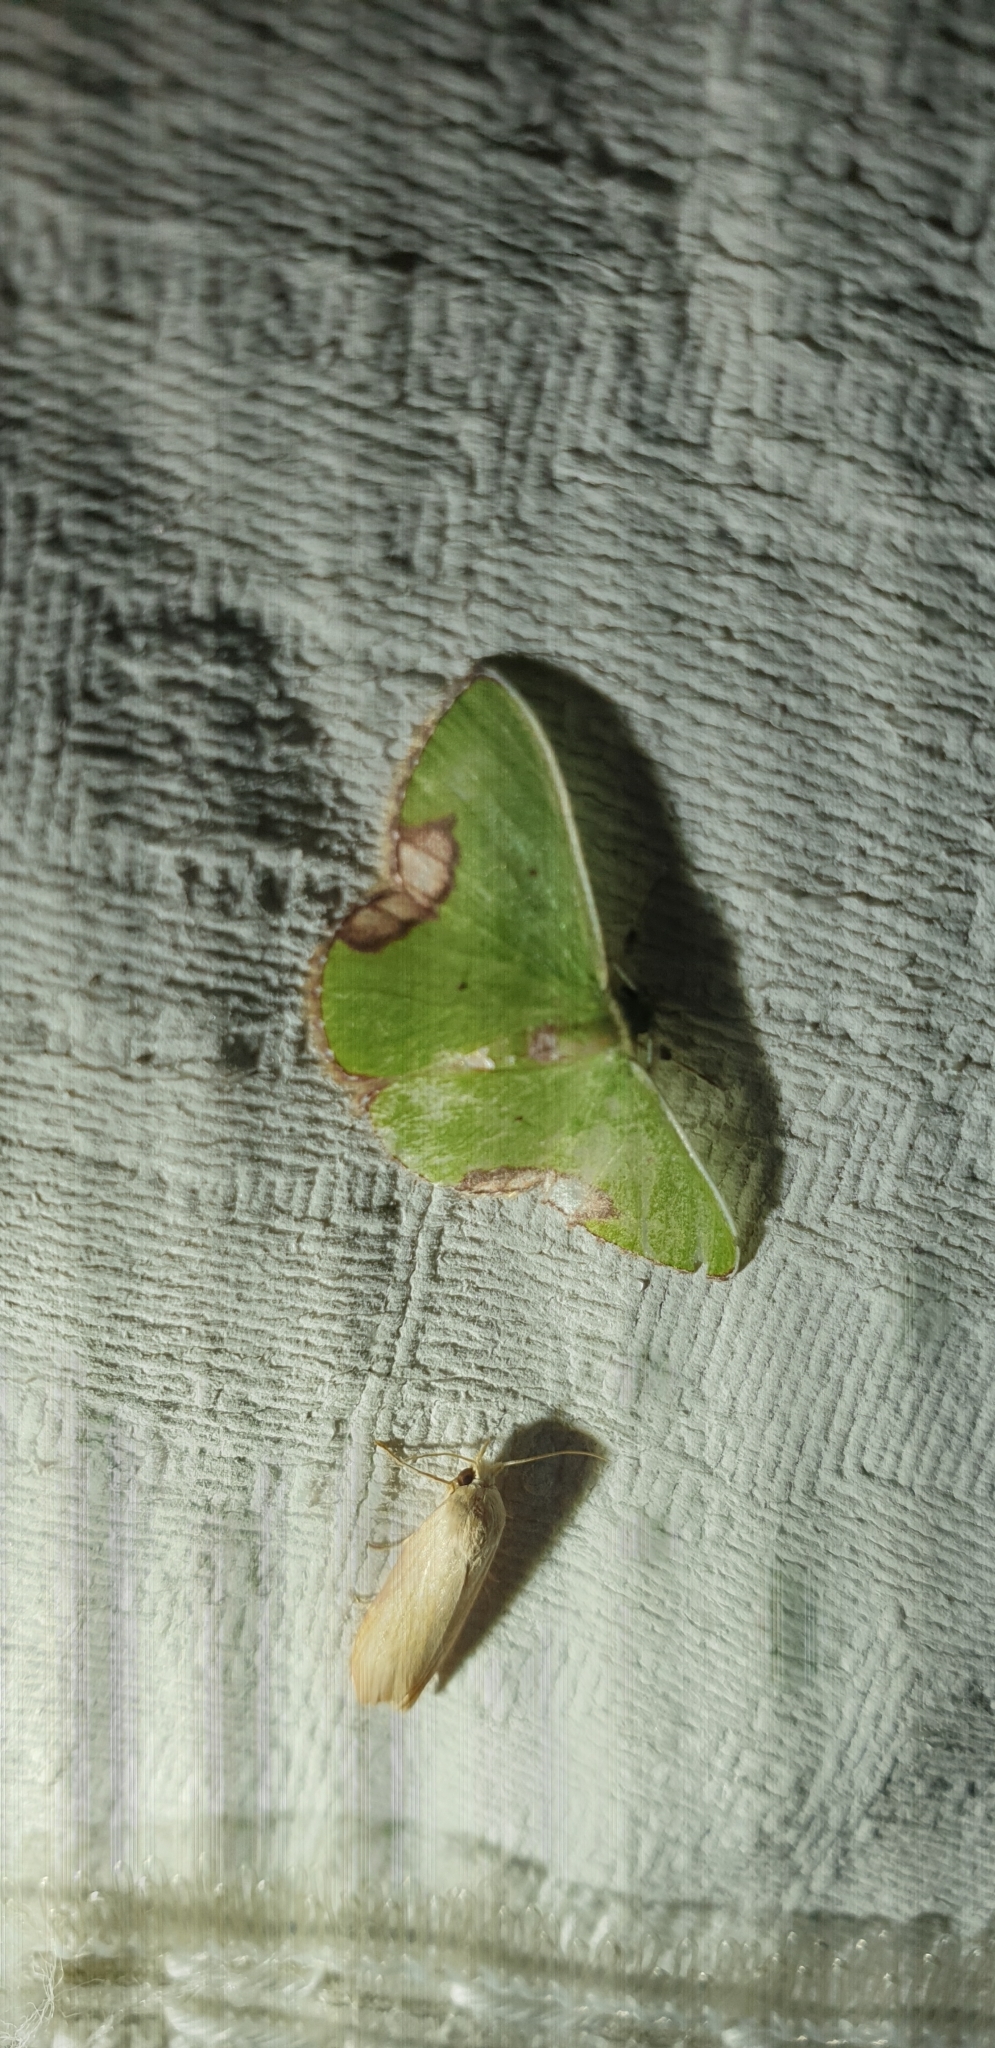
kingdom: Animalia
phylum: Arthropoda
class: Insecta
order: Lepidoptera
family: Geometridae
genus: Comibaena
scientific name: Comibaena mariae
